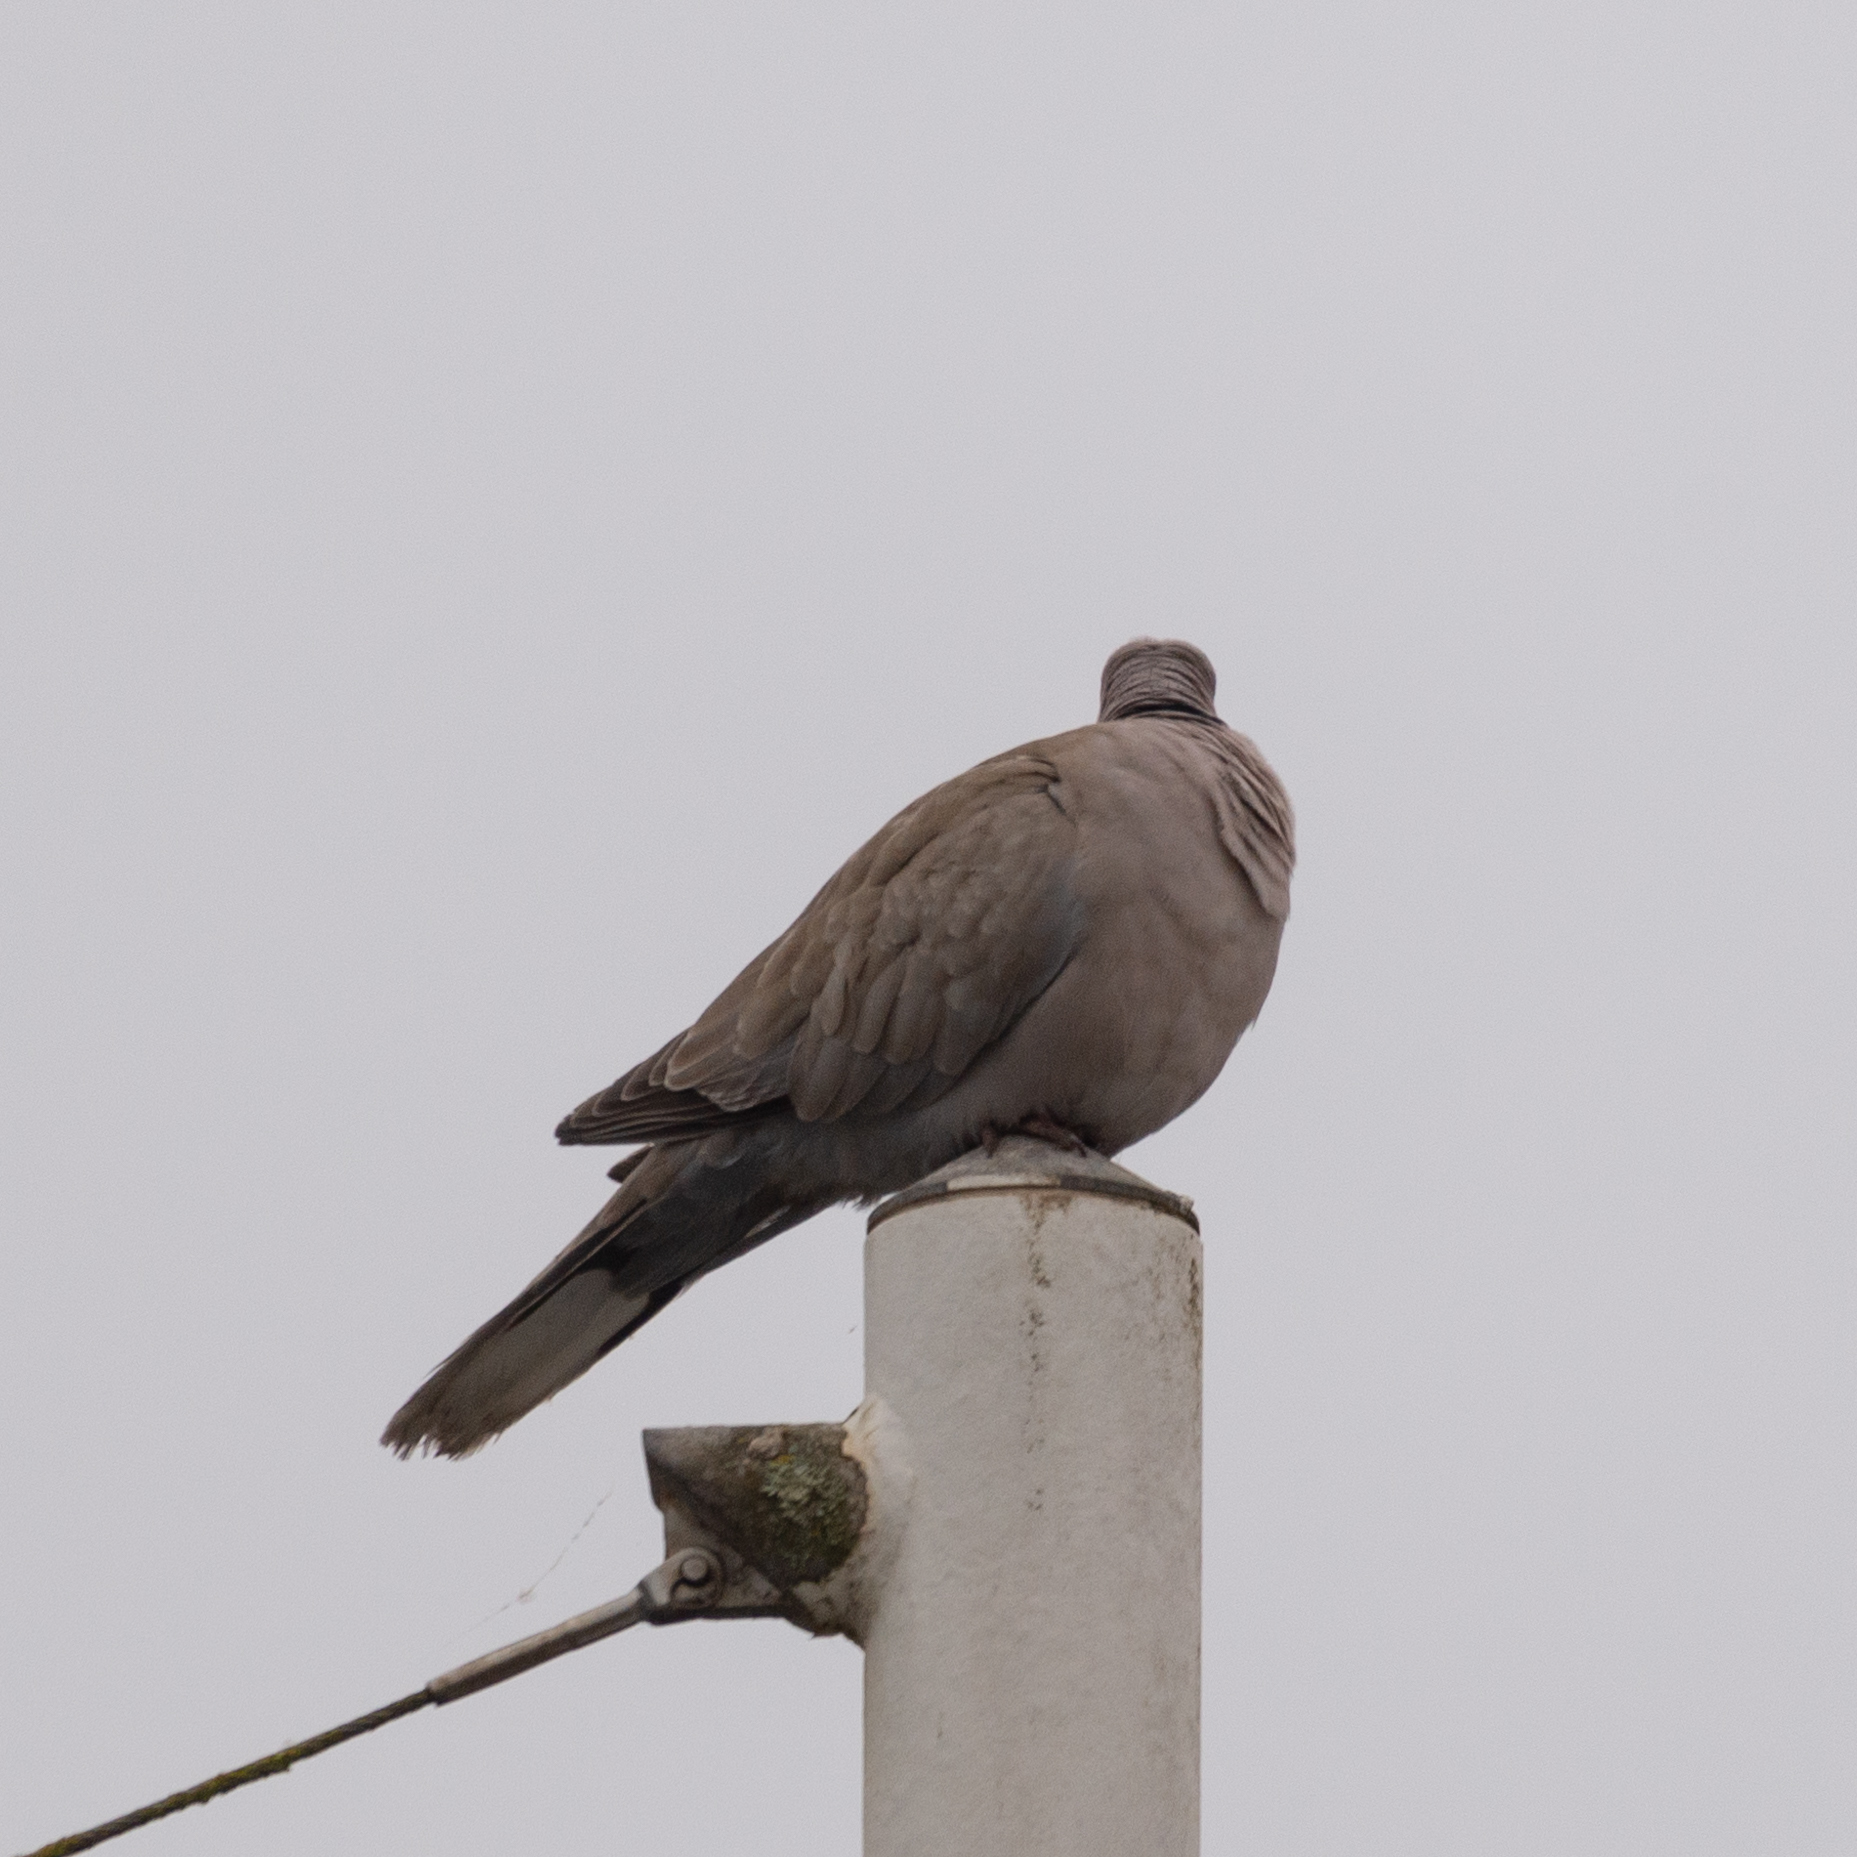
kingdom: Animalia
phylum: Chordata
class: Aves
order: Columbiformes
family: Columbidae
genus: Streptopelia
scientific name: Streptopelia decaocto
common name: Eurasian collared dove
